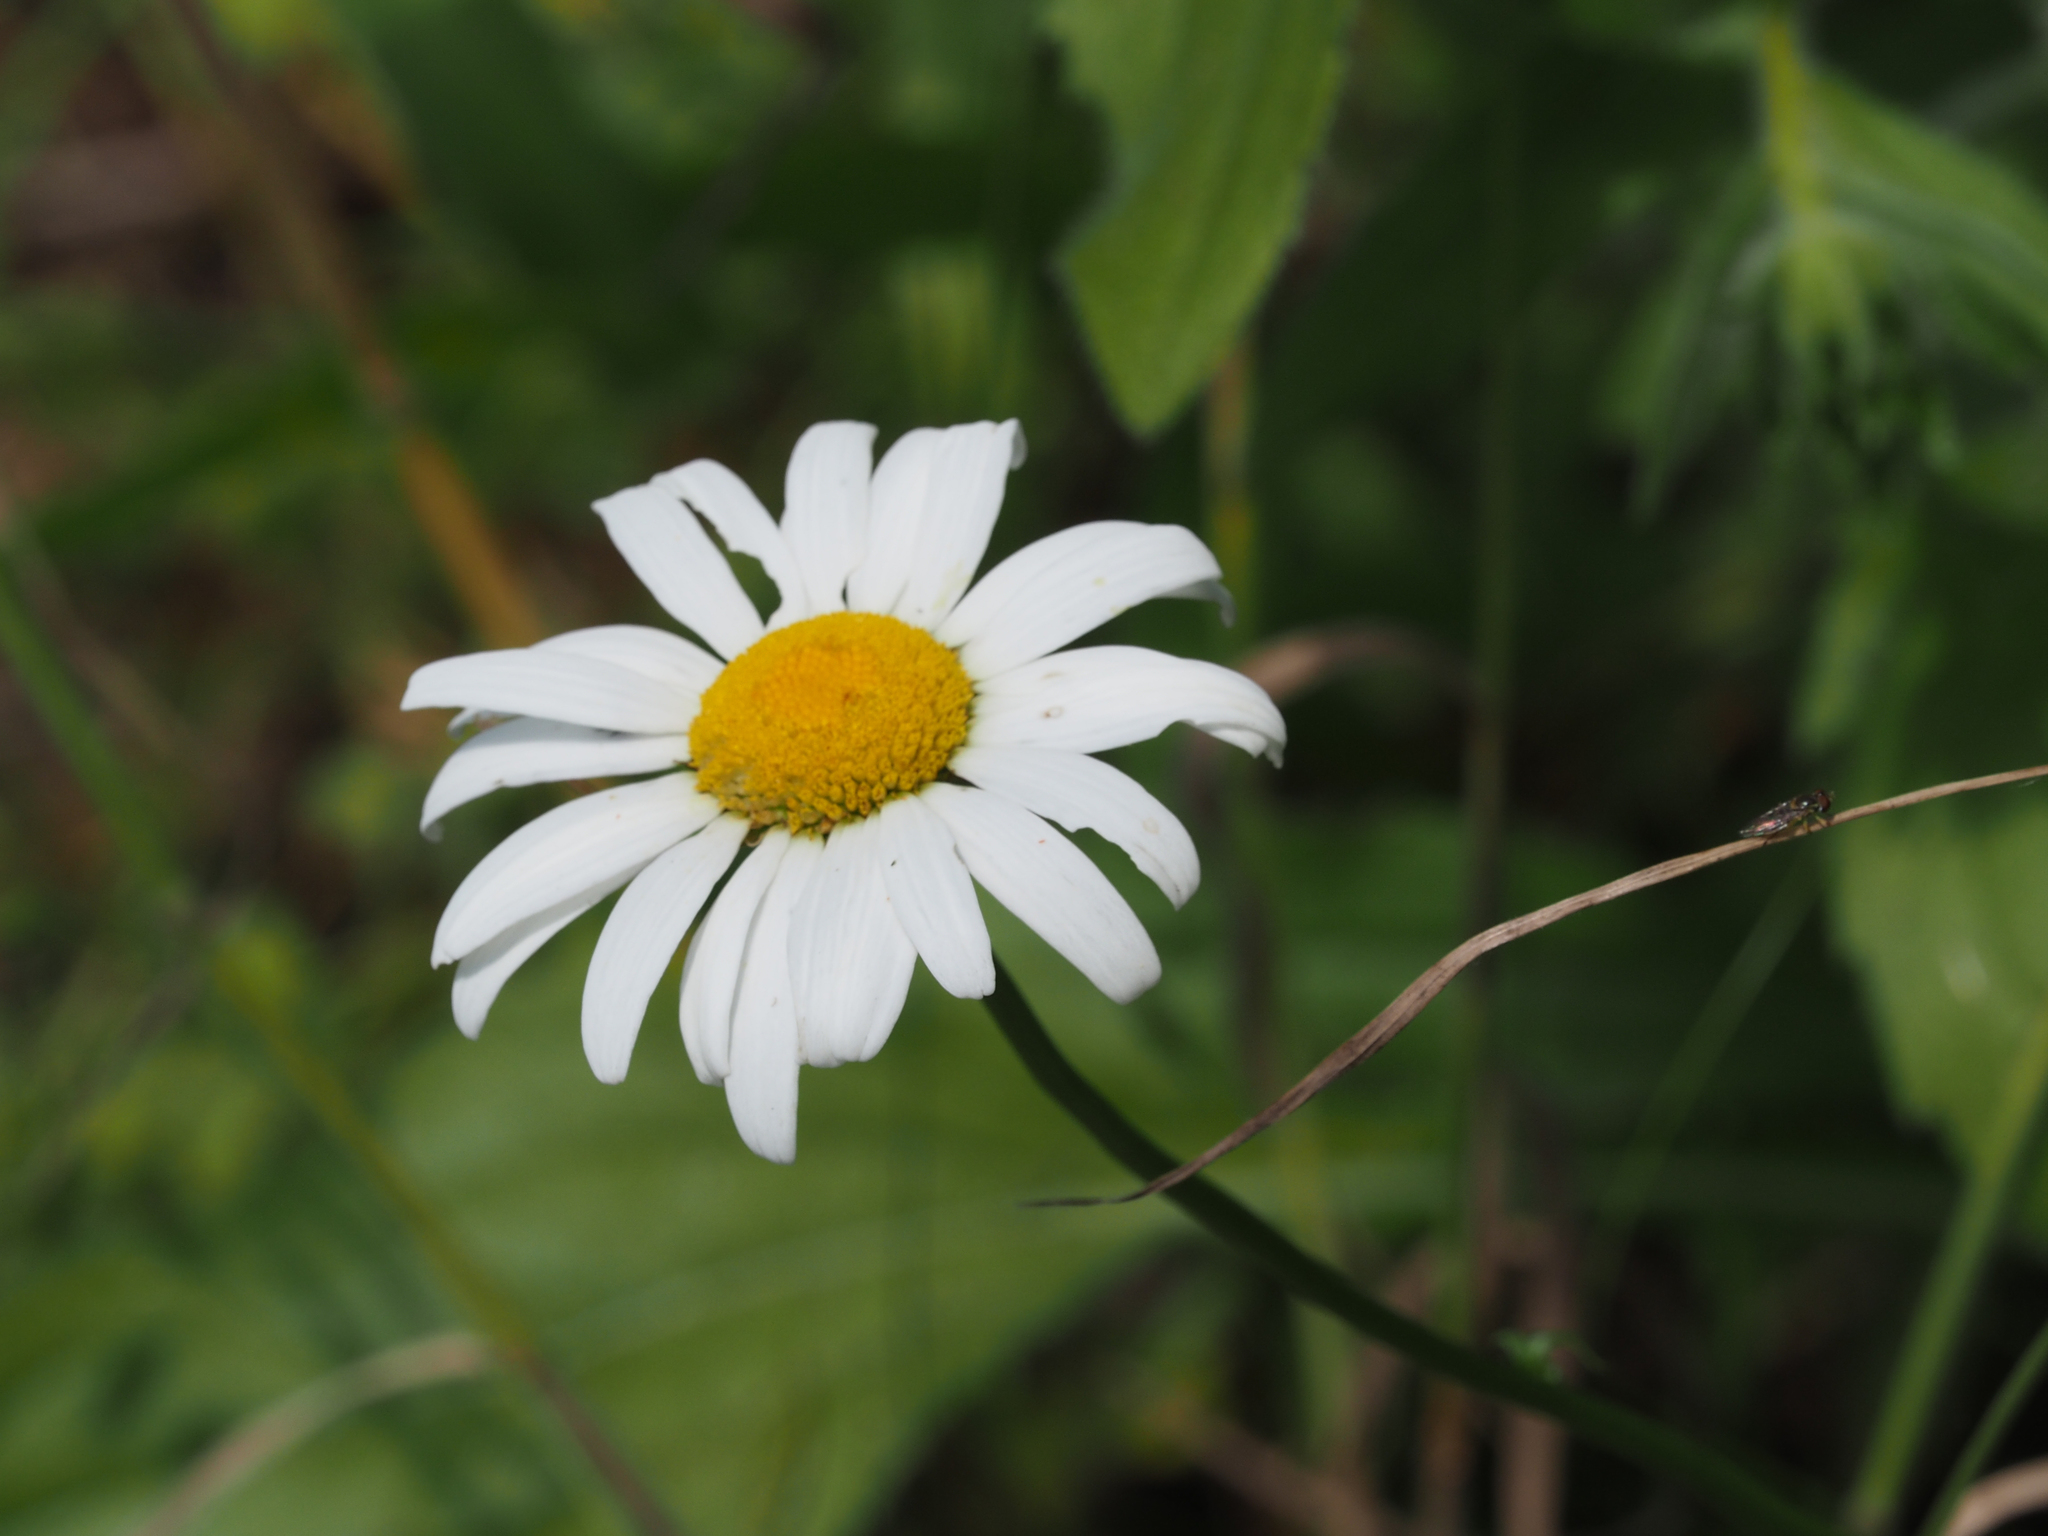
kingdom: Plantae
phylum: Tracheophyta
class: Magnoliopsida
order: Asterales
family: Asteraceae
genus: Leucanthemum
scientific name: Leucanthemum vulgare
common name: Oxeye daisy
